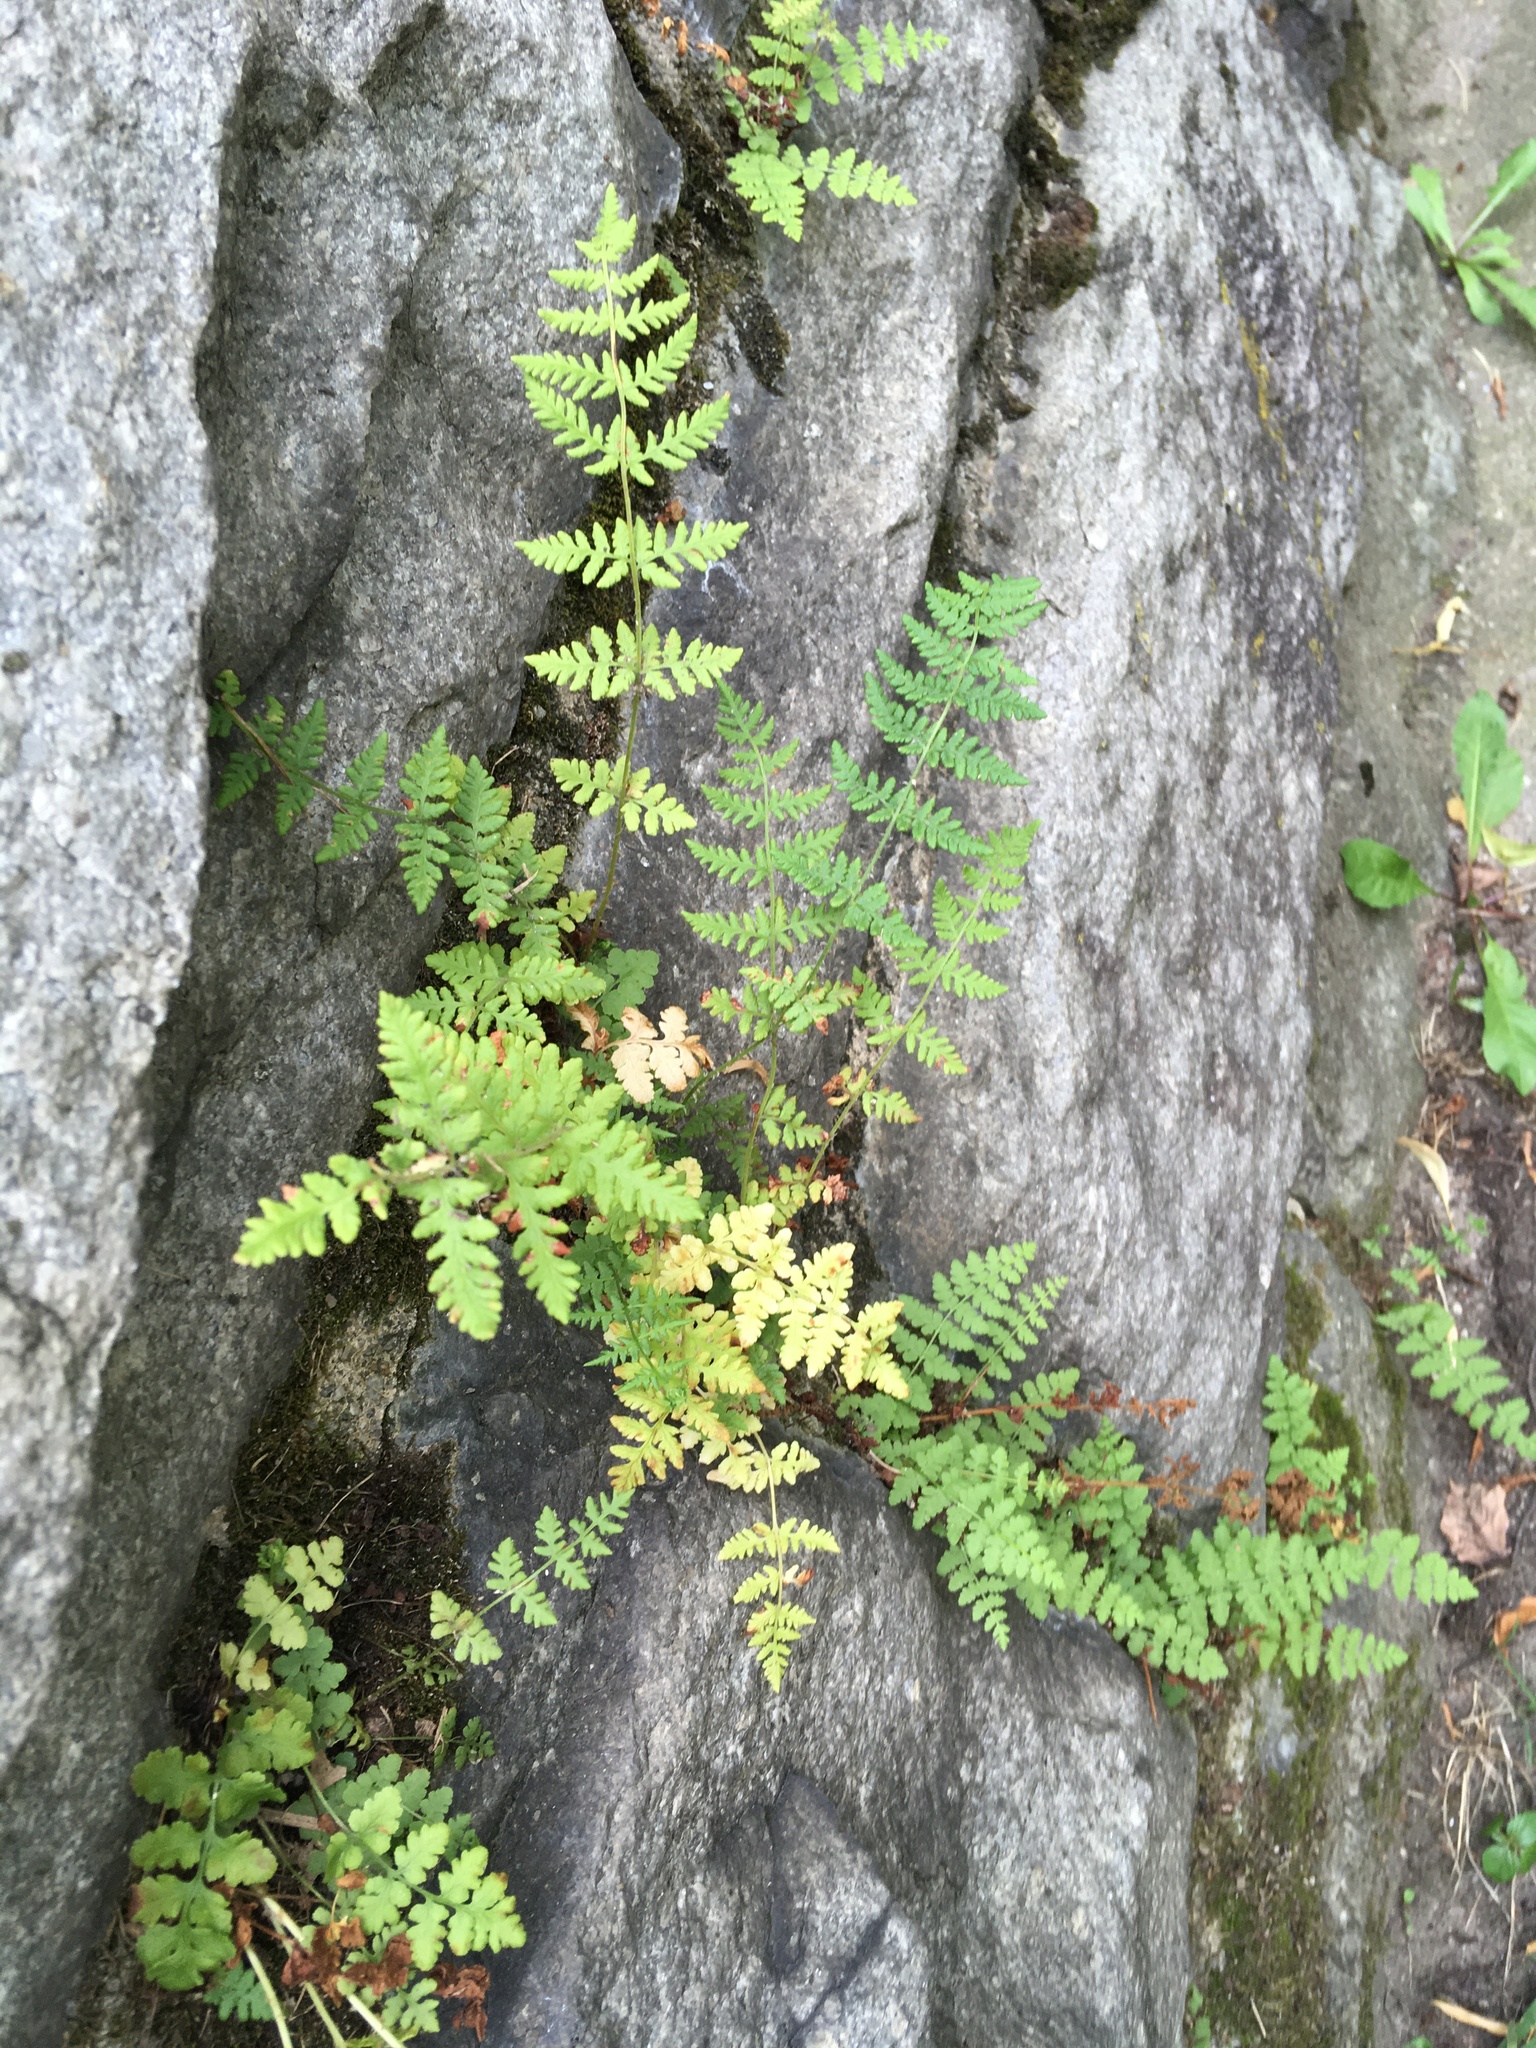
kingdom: Plantae
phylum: Tracheophyta
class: Polypodiopsida
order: Polypodiales
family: Woodsiaceae
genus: Physematium
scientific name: Physematium obtusum
